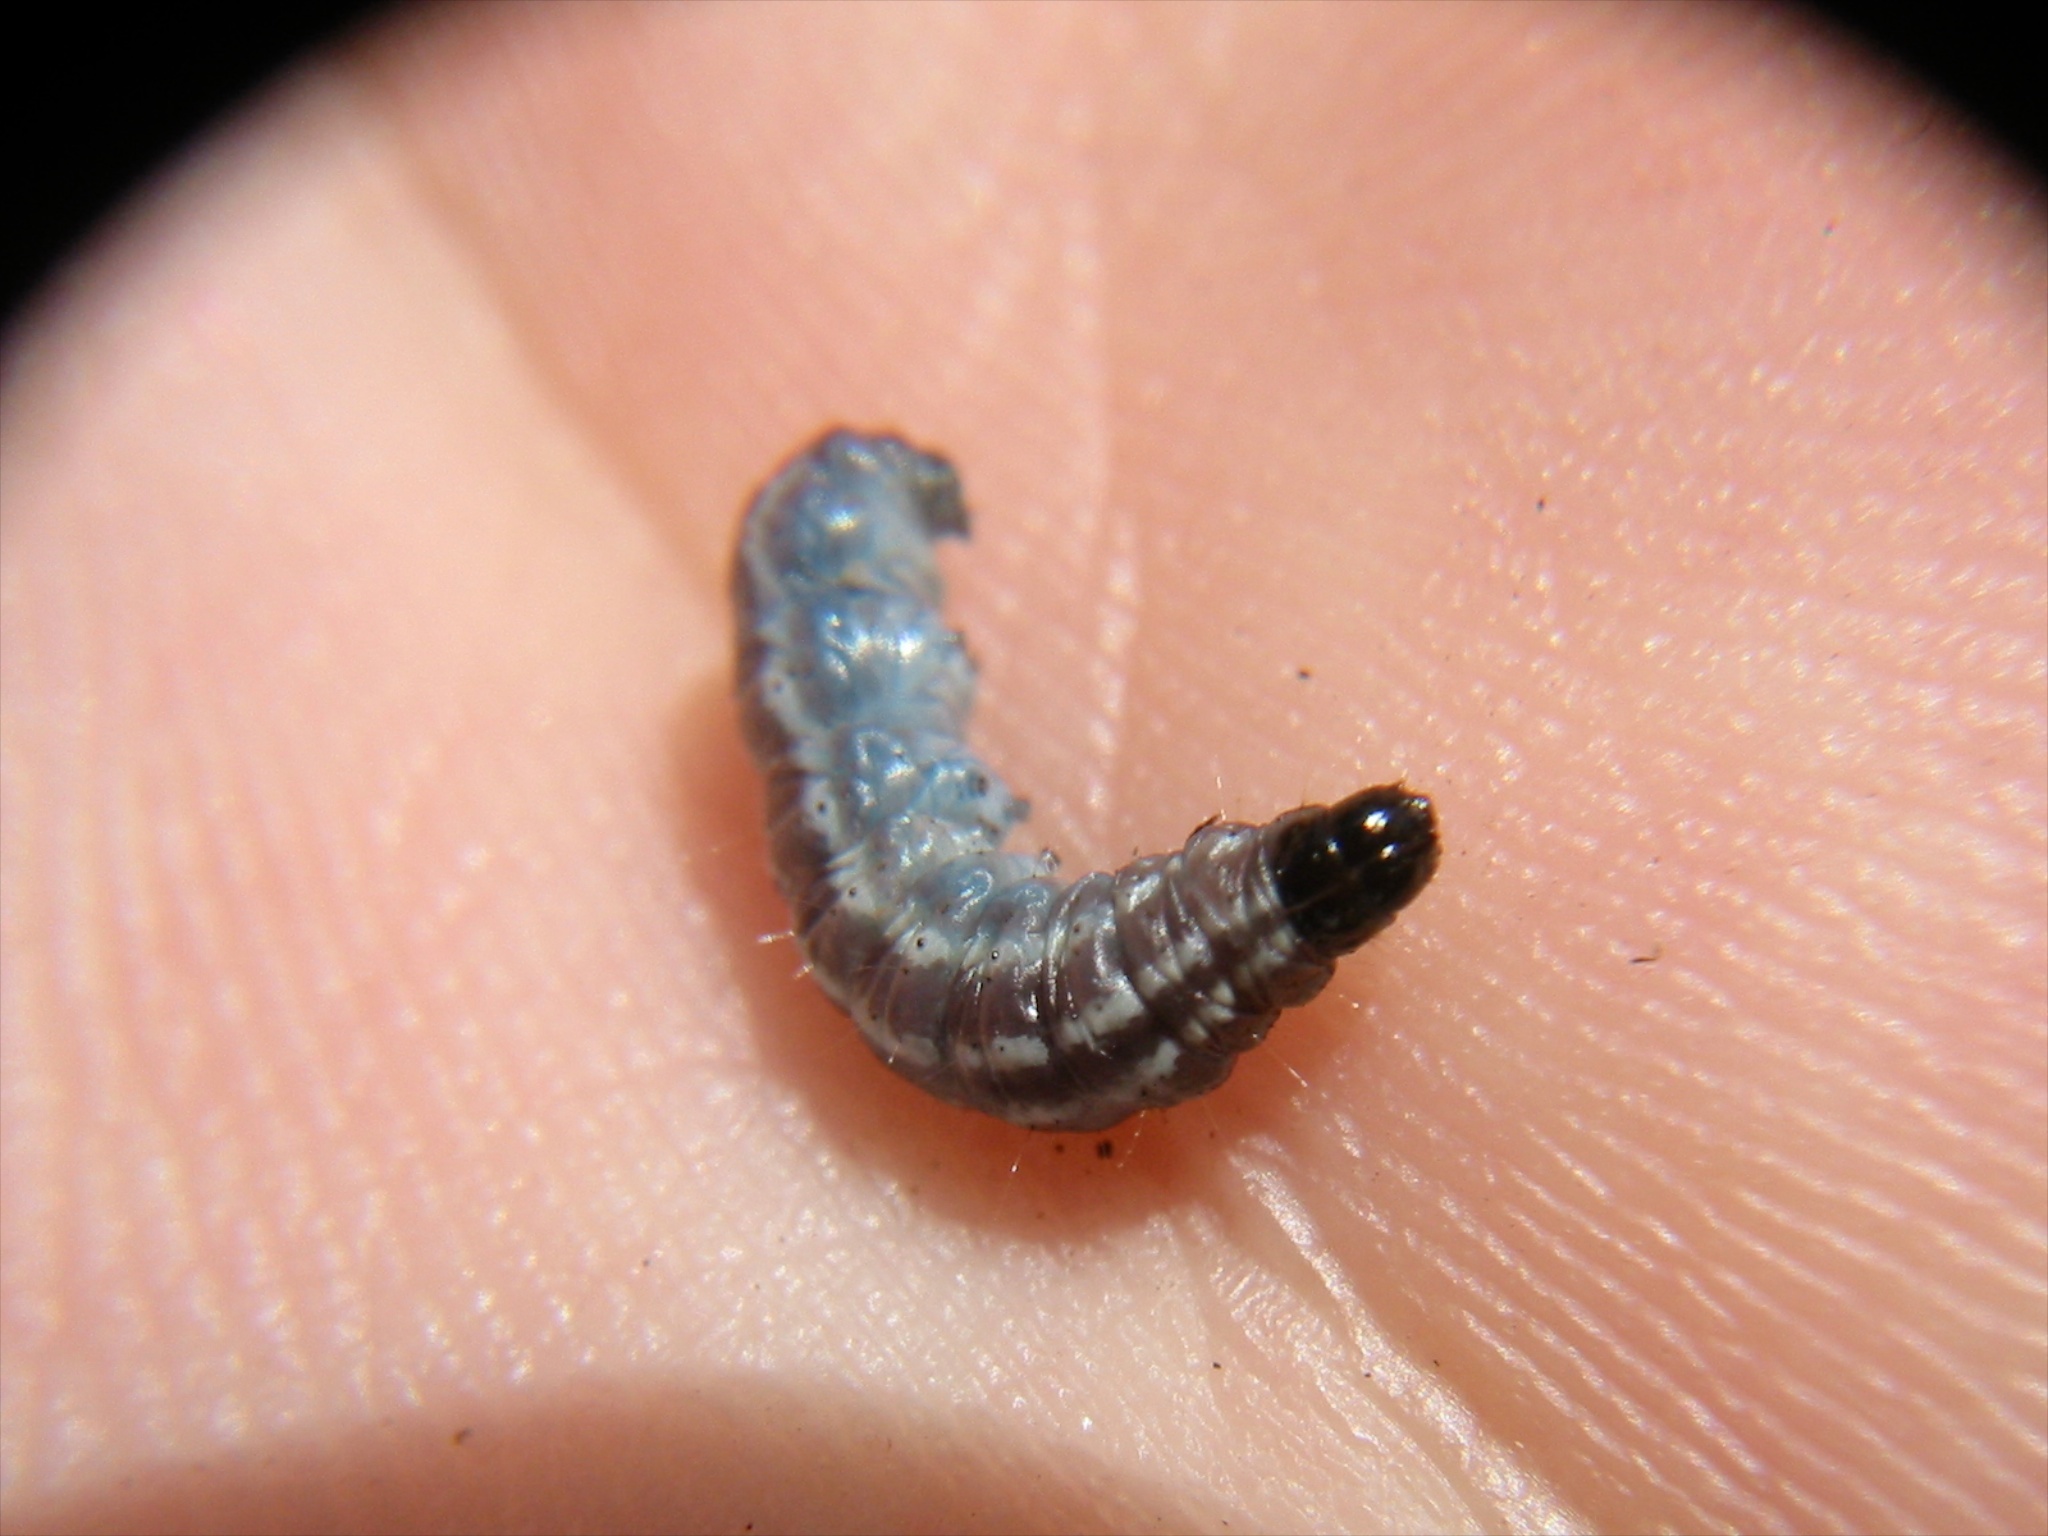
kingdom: Animalia
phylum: Arthropoda
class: Insecta
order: Lepidoptera
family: Pyralidae
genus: Patagoniodes
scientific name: Patagoniodes farinaria
